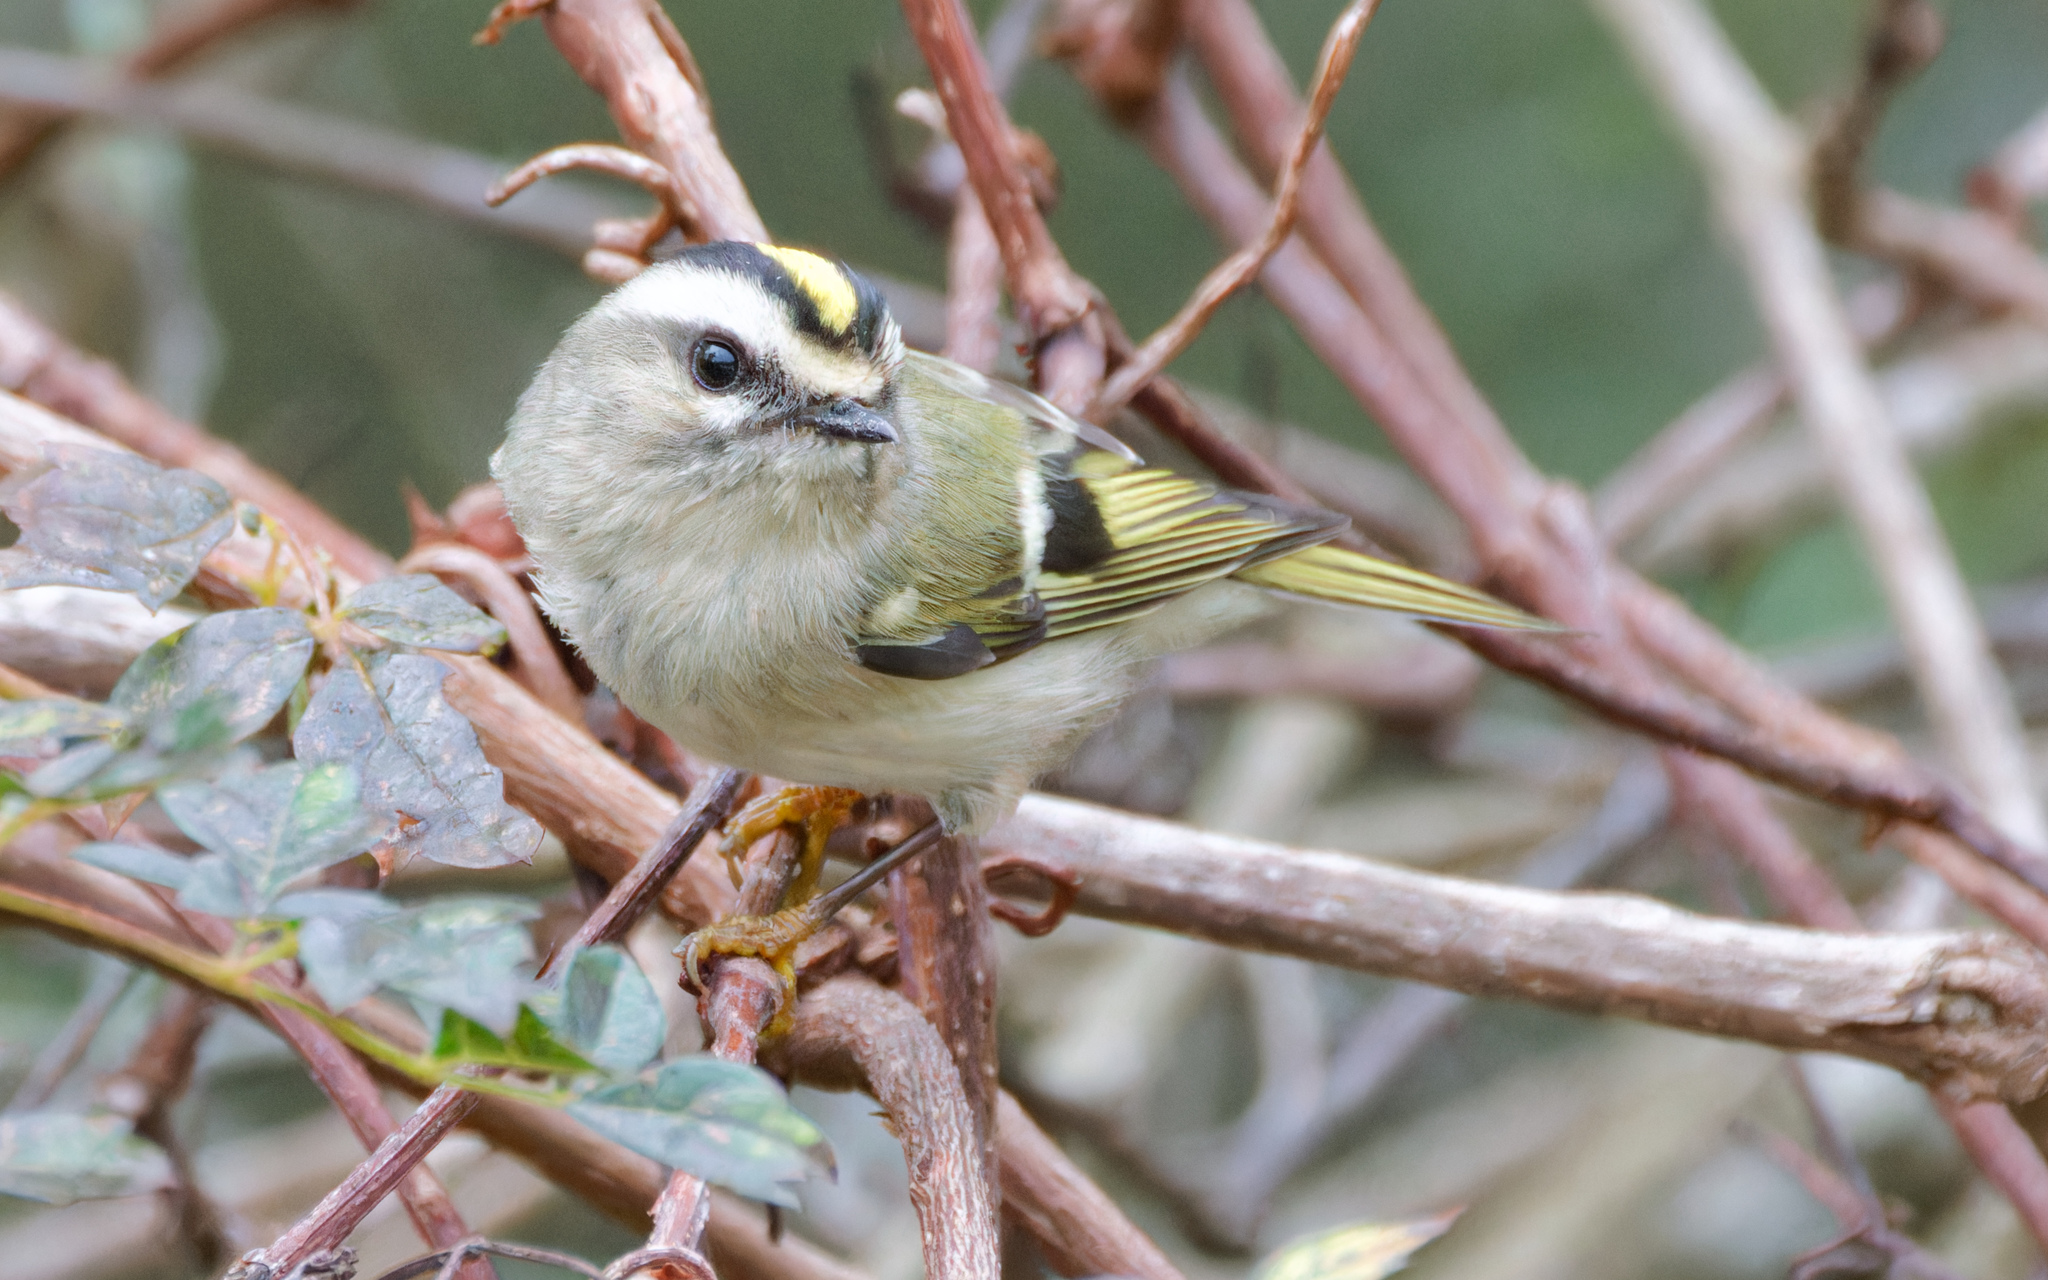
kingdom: Animalia
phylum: Chordata
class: Aves
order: Passeriformes
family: Regulidae
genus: Regulus
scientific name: Regulus satrapa
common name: Golden-crowned kinglet
